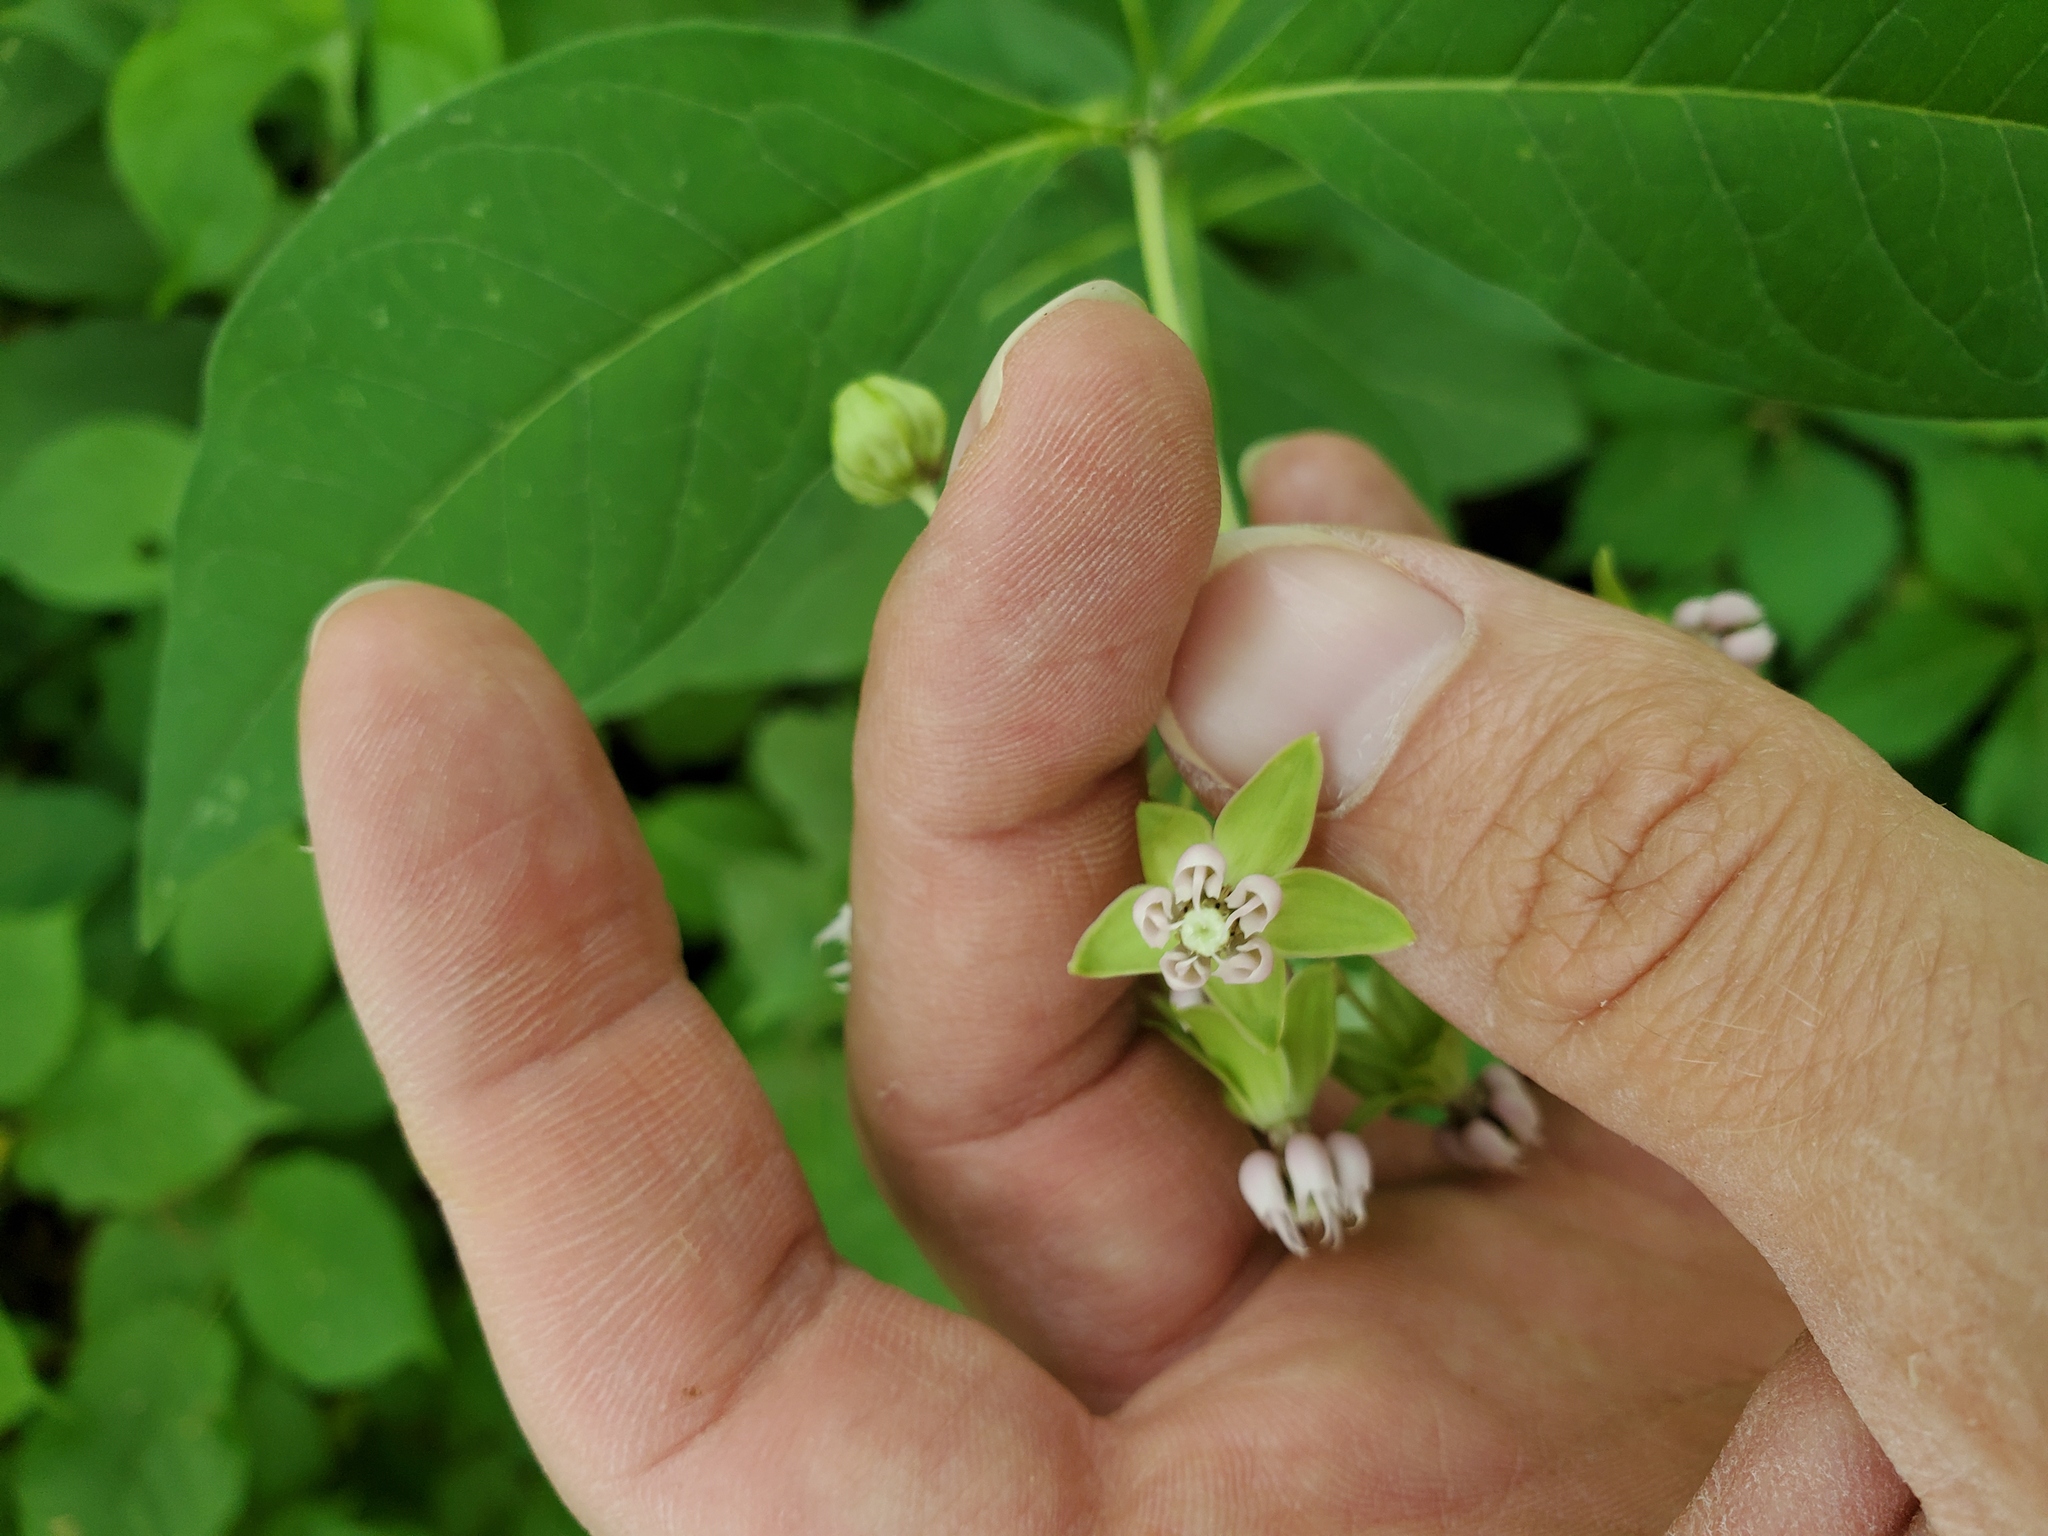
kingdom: Plantae
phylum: Tracheophyta
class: Magnoliopsida
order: Gentianales
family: Apocynaceae
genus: Asclepias
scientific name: Asclepias exaltata
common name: Poke milkweed
